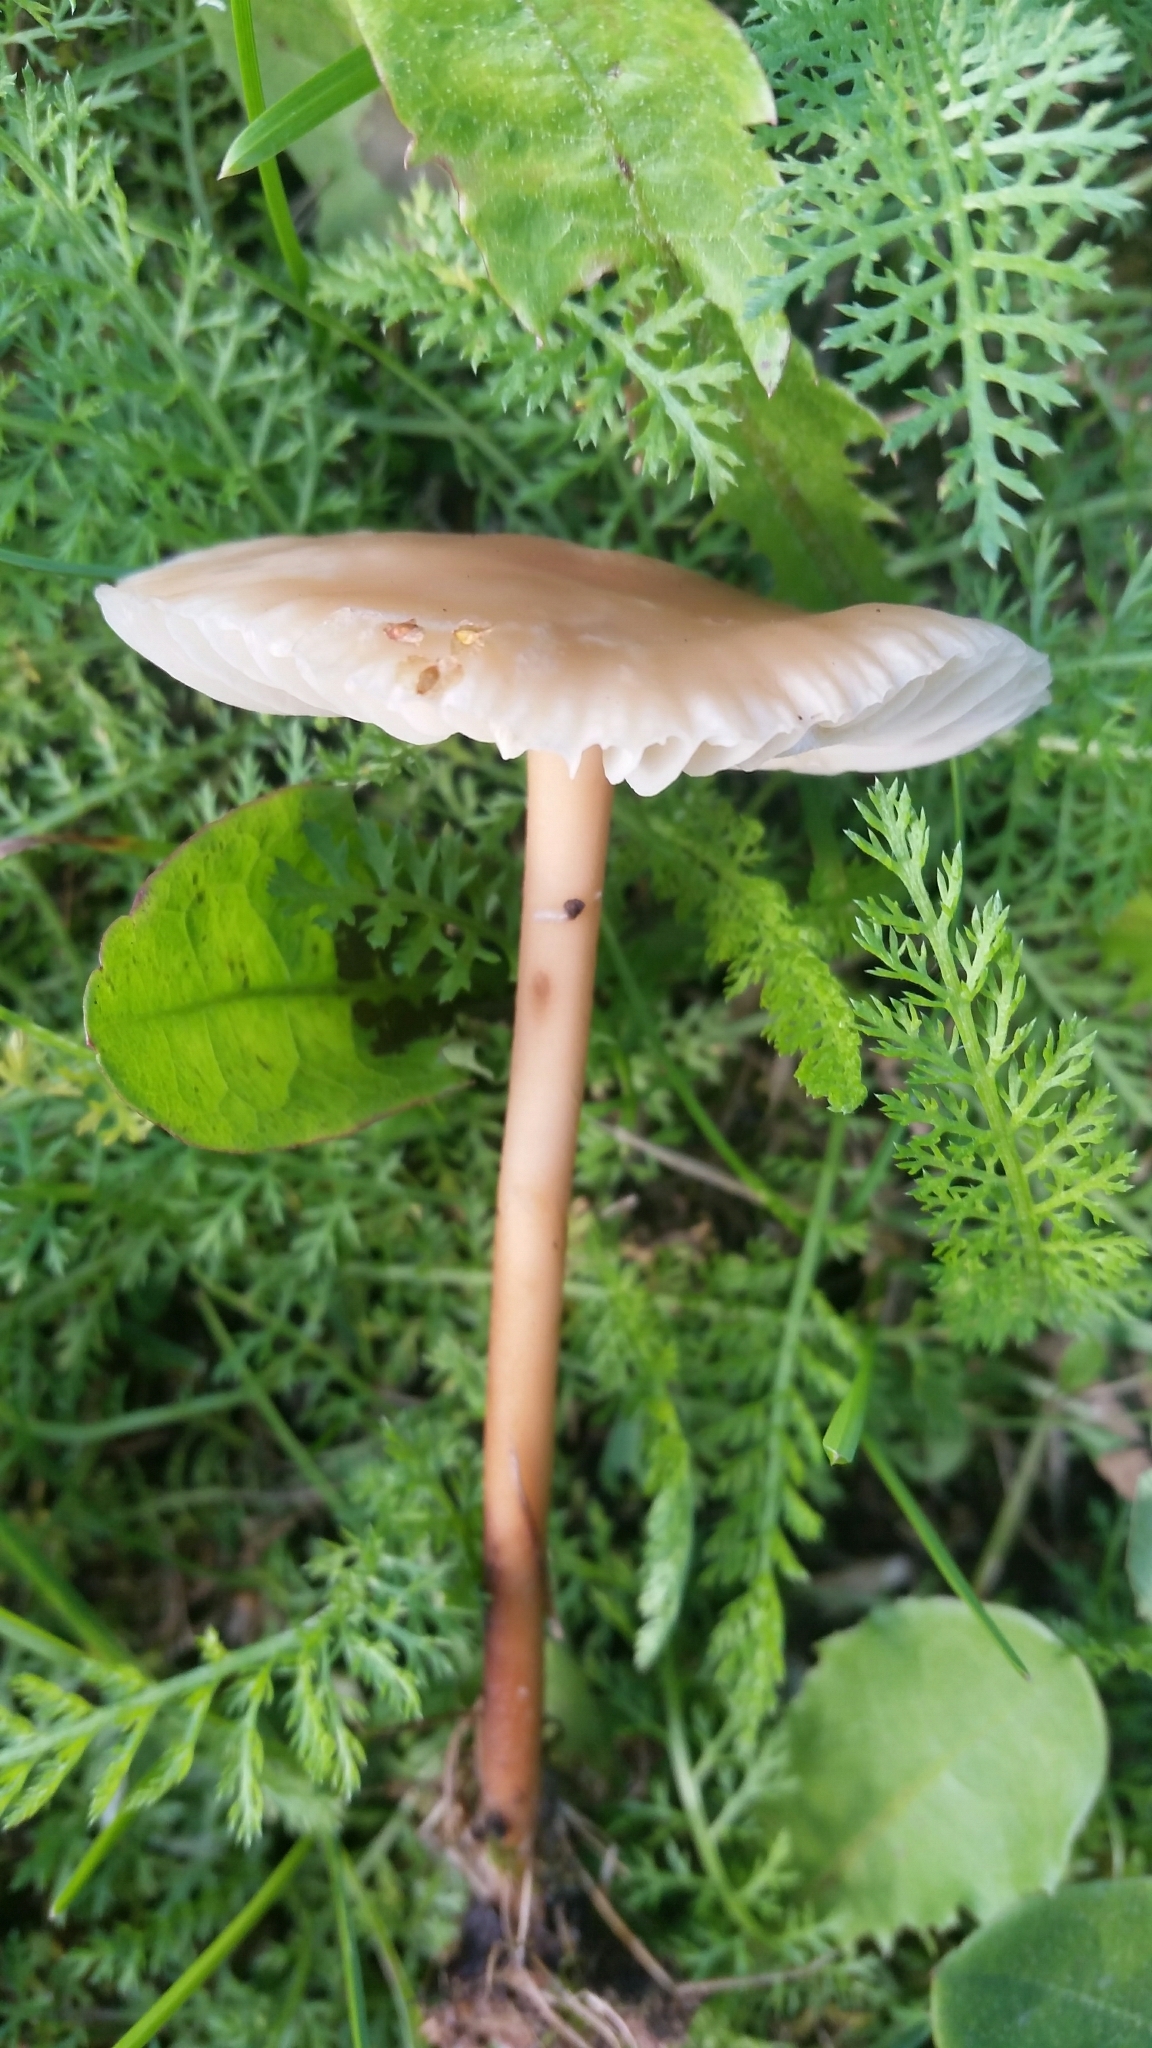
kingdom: Fungi
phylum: Basidiomycota
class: Agaricomycetes
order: Agaricales
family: Marasmiaceae
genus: Marasmius
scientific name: Marasmius oreades
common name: Fairy ring champignon
